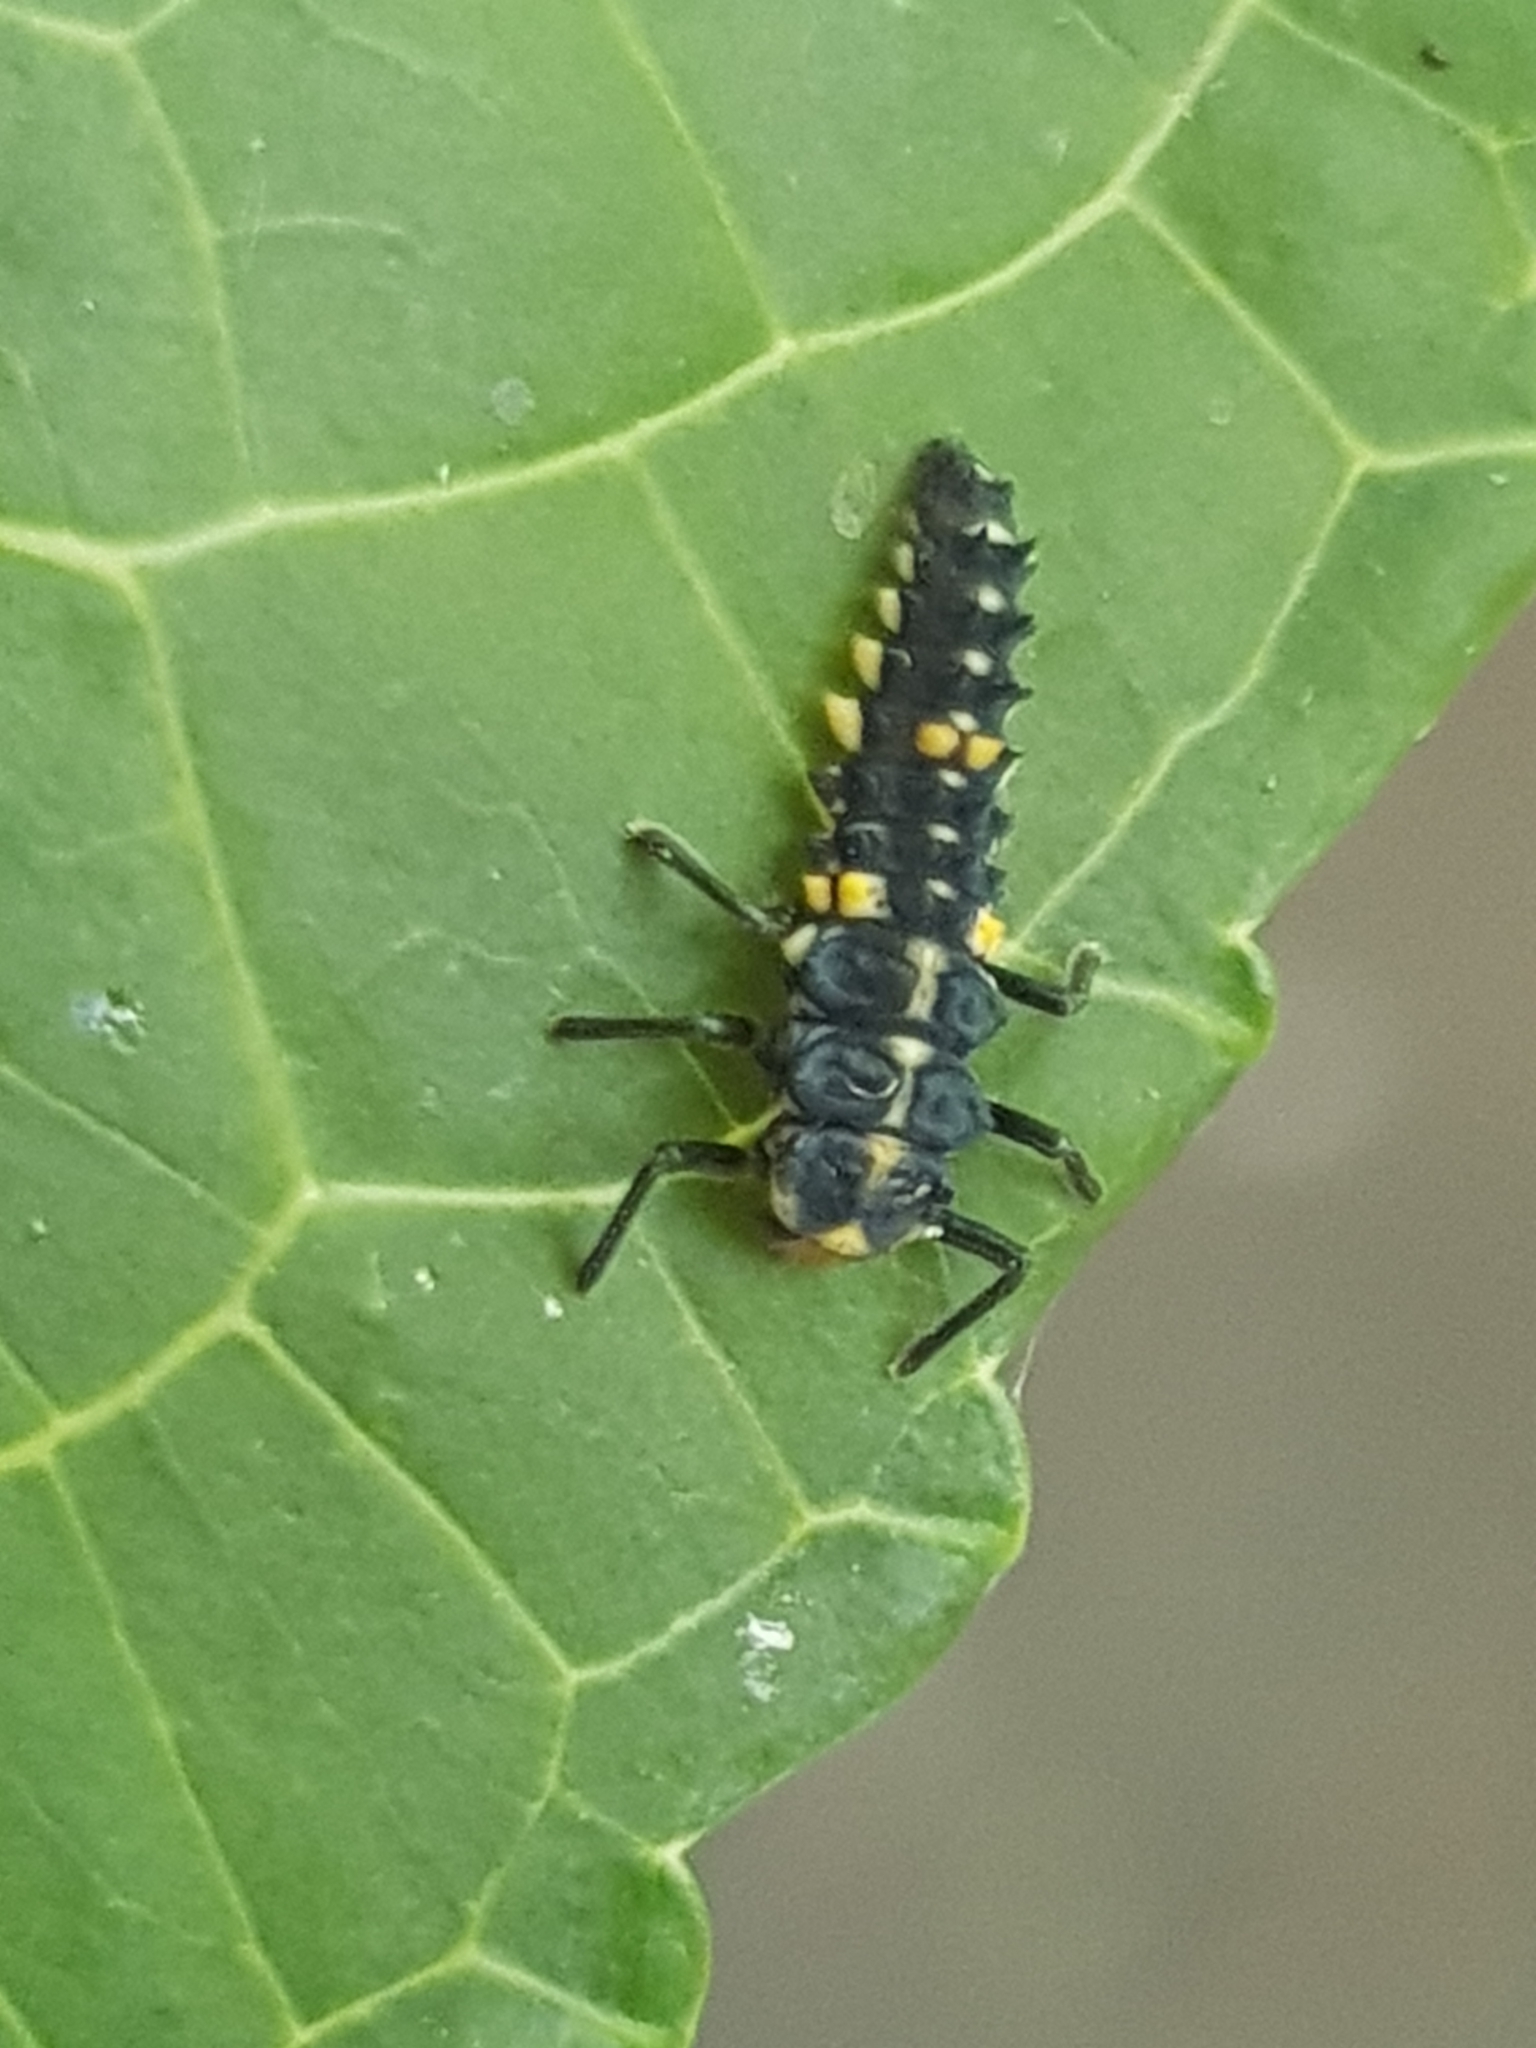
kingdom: Animalia
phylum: Arthropoda
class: Insecta
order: Coleoptera
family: Coccinellidae
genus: Cleobora
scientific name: Cleobora
